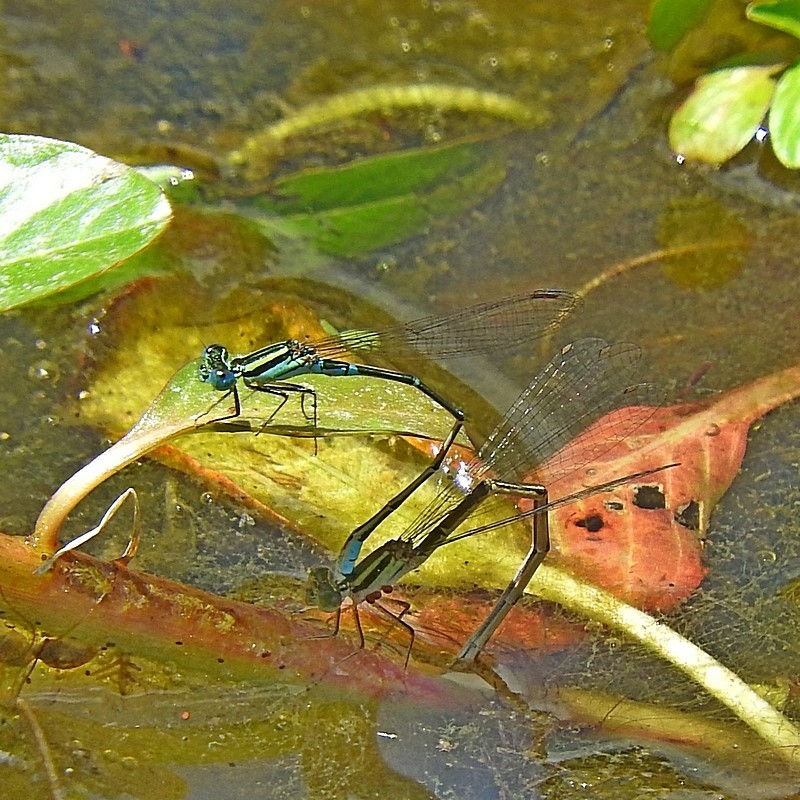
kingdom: Animalia
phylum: Arthropoda
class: Insecta
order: Odonata
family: Coenagrionidae
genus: Austroagrion
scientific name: Austroagrion watsoni
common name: Eastern billabongfly
